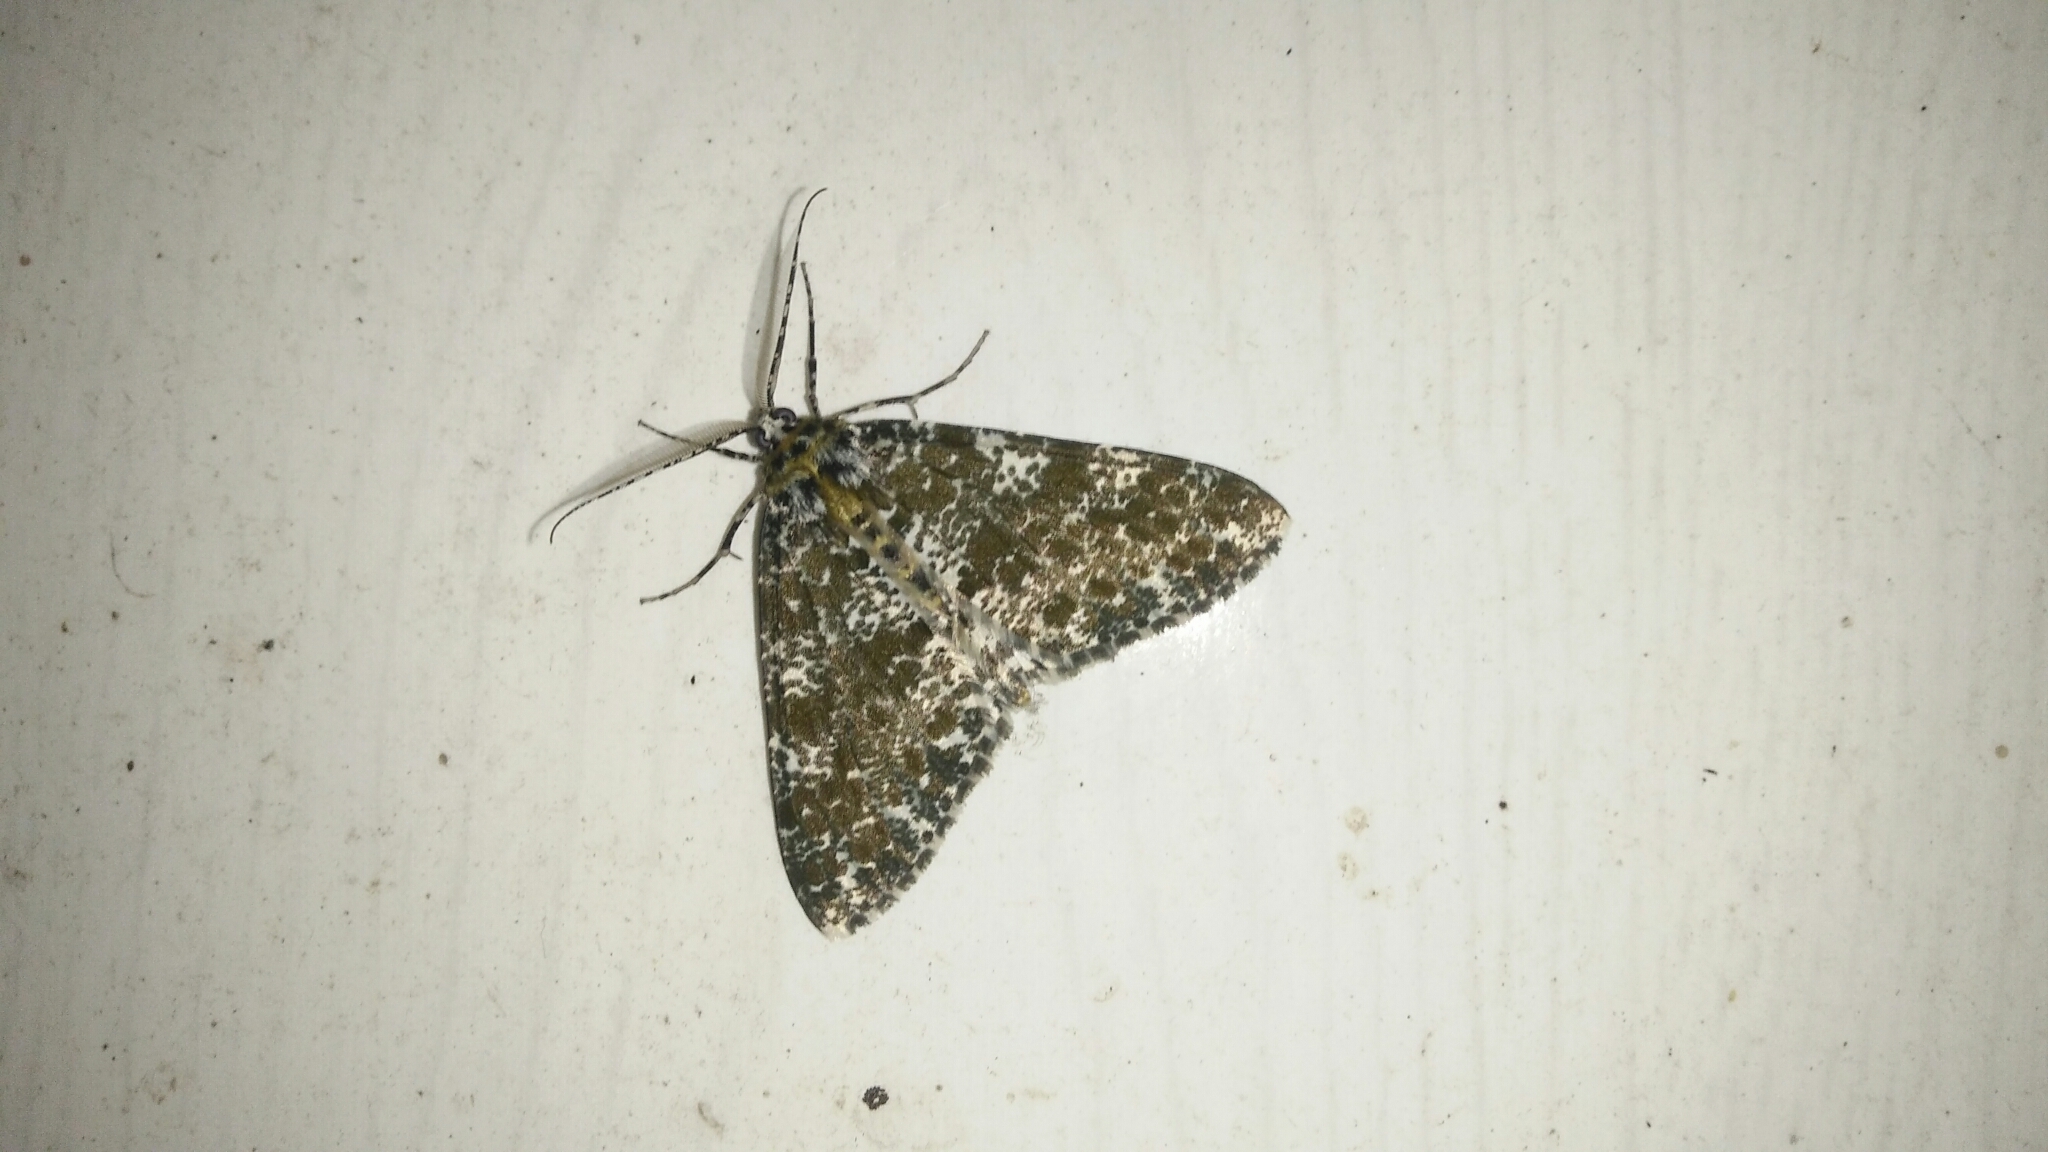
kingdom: Animalia
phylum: Arthropoda
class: Insecta
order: Lepidoptera
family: Geometridae
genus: Arichanna
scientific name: Arichanna picaria
